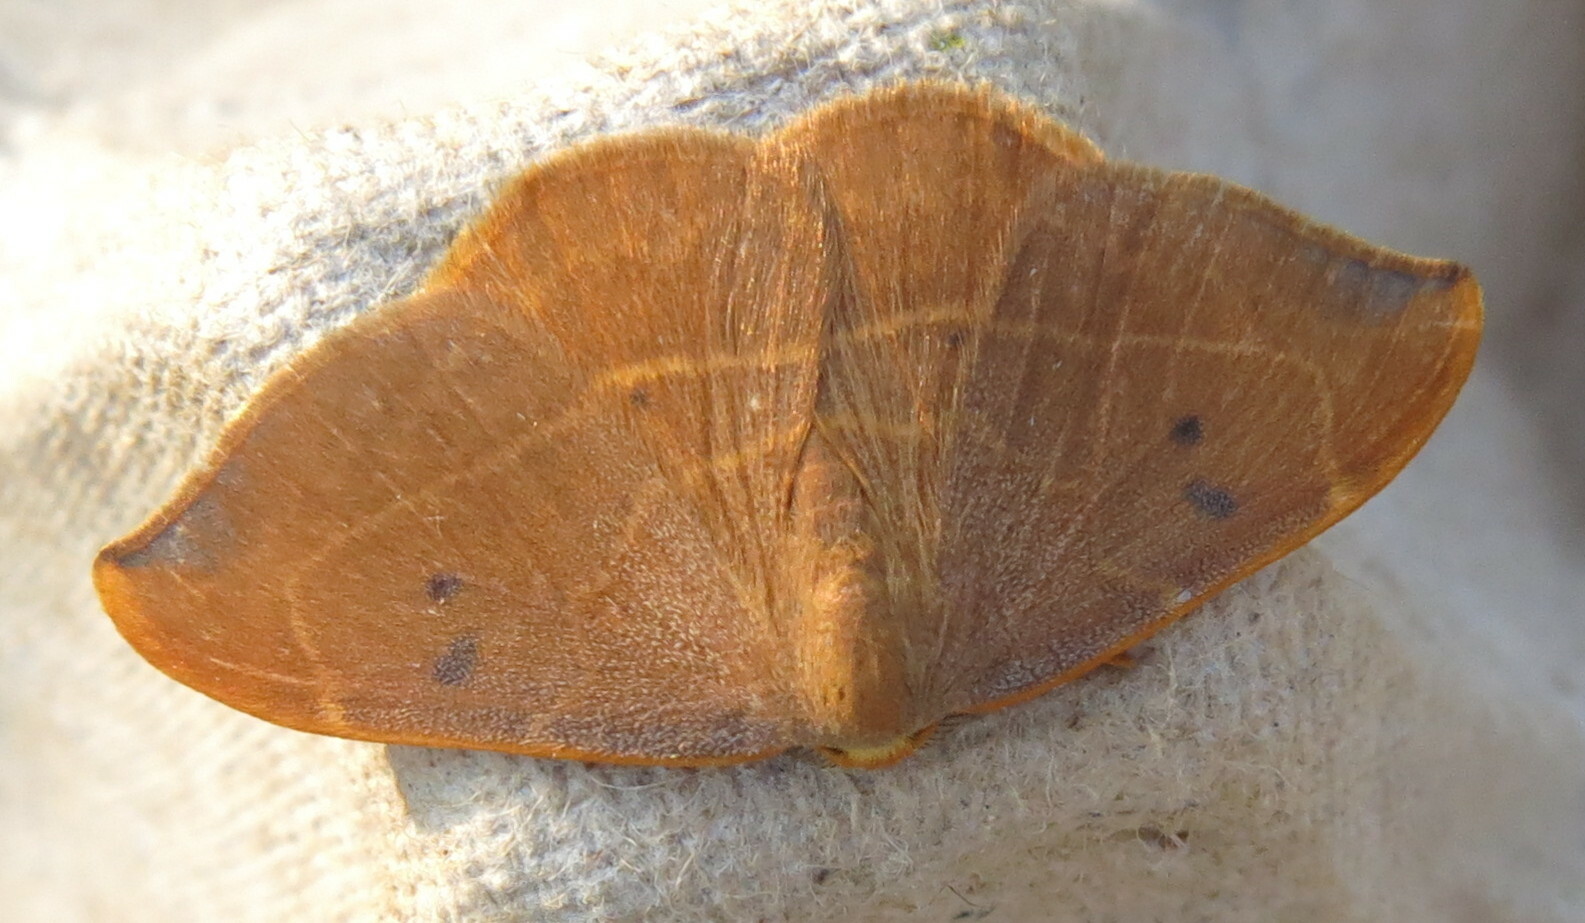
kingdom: Animalia
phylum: Arthropoda
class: Insecta
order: Lepidoptera
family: Drepanidae
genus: Watsonalla
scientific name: Watsonalla binaria
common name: Oak hook-tip
